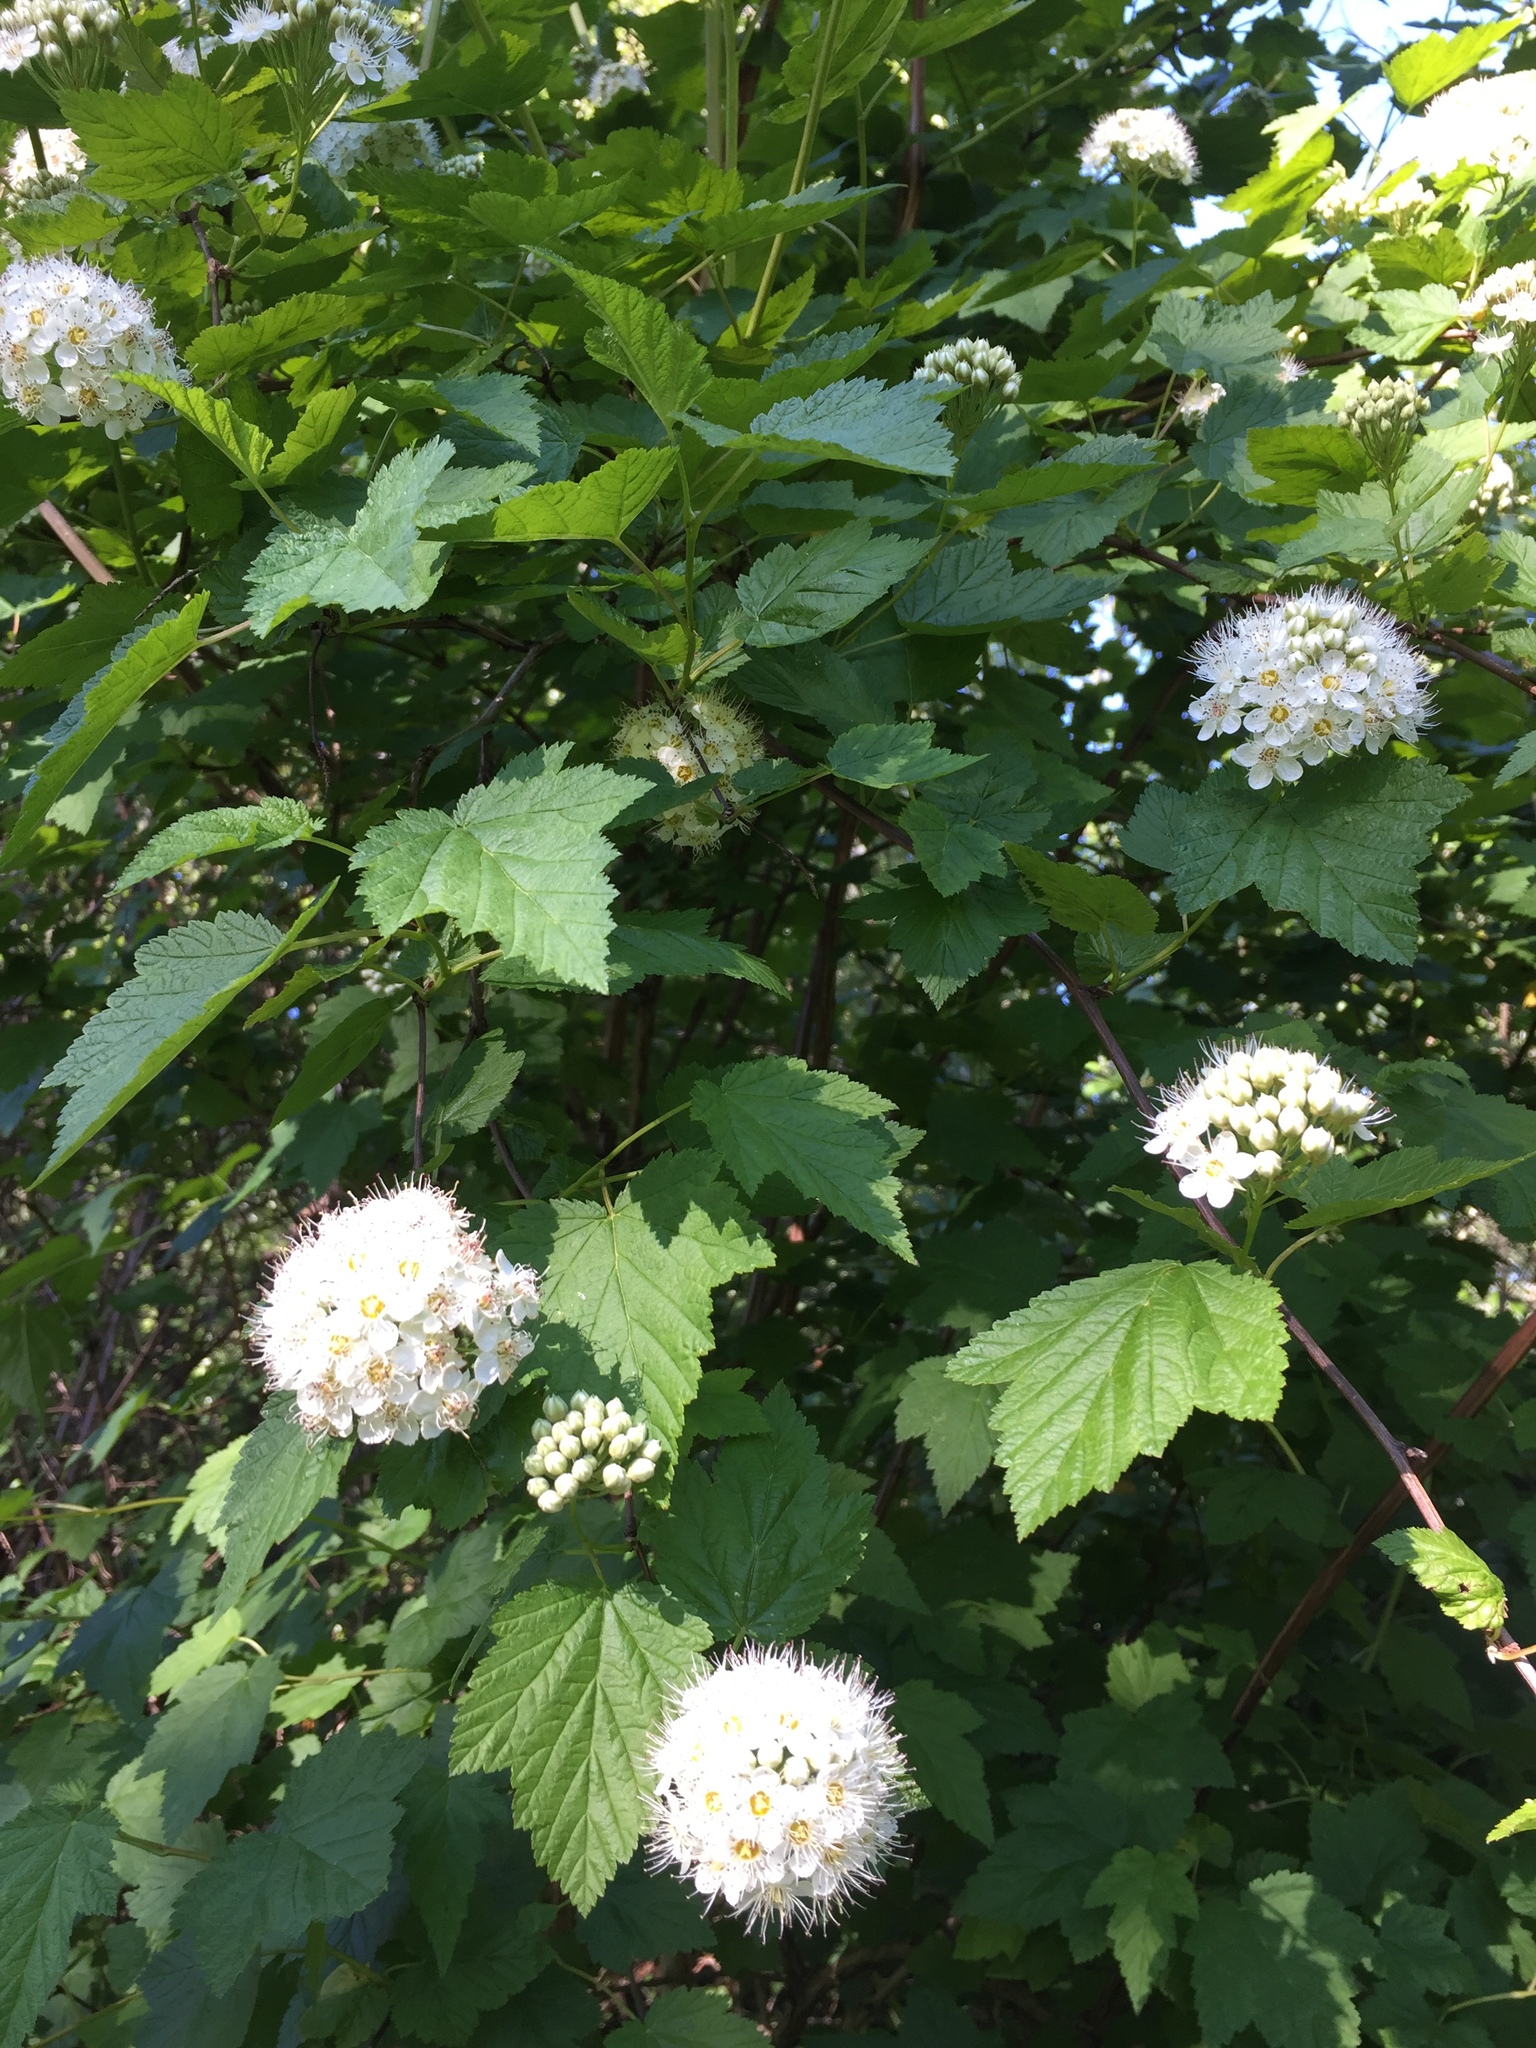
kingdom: Plantae
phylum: Tracheophyta
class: Magnoliopsida
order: Rosales
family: Rosaceae
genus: Physocarpus
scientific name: Physocarpus capitatus
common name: Pacific ninebark
